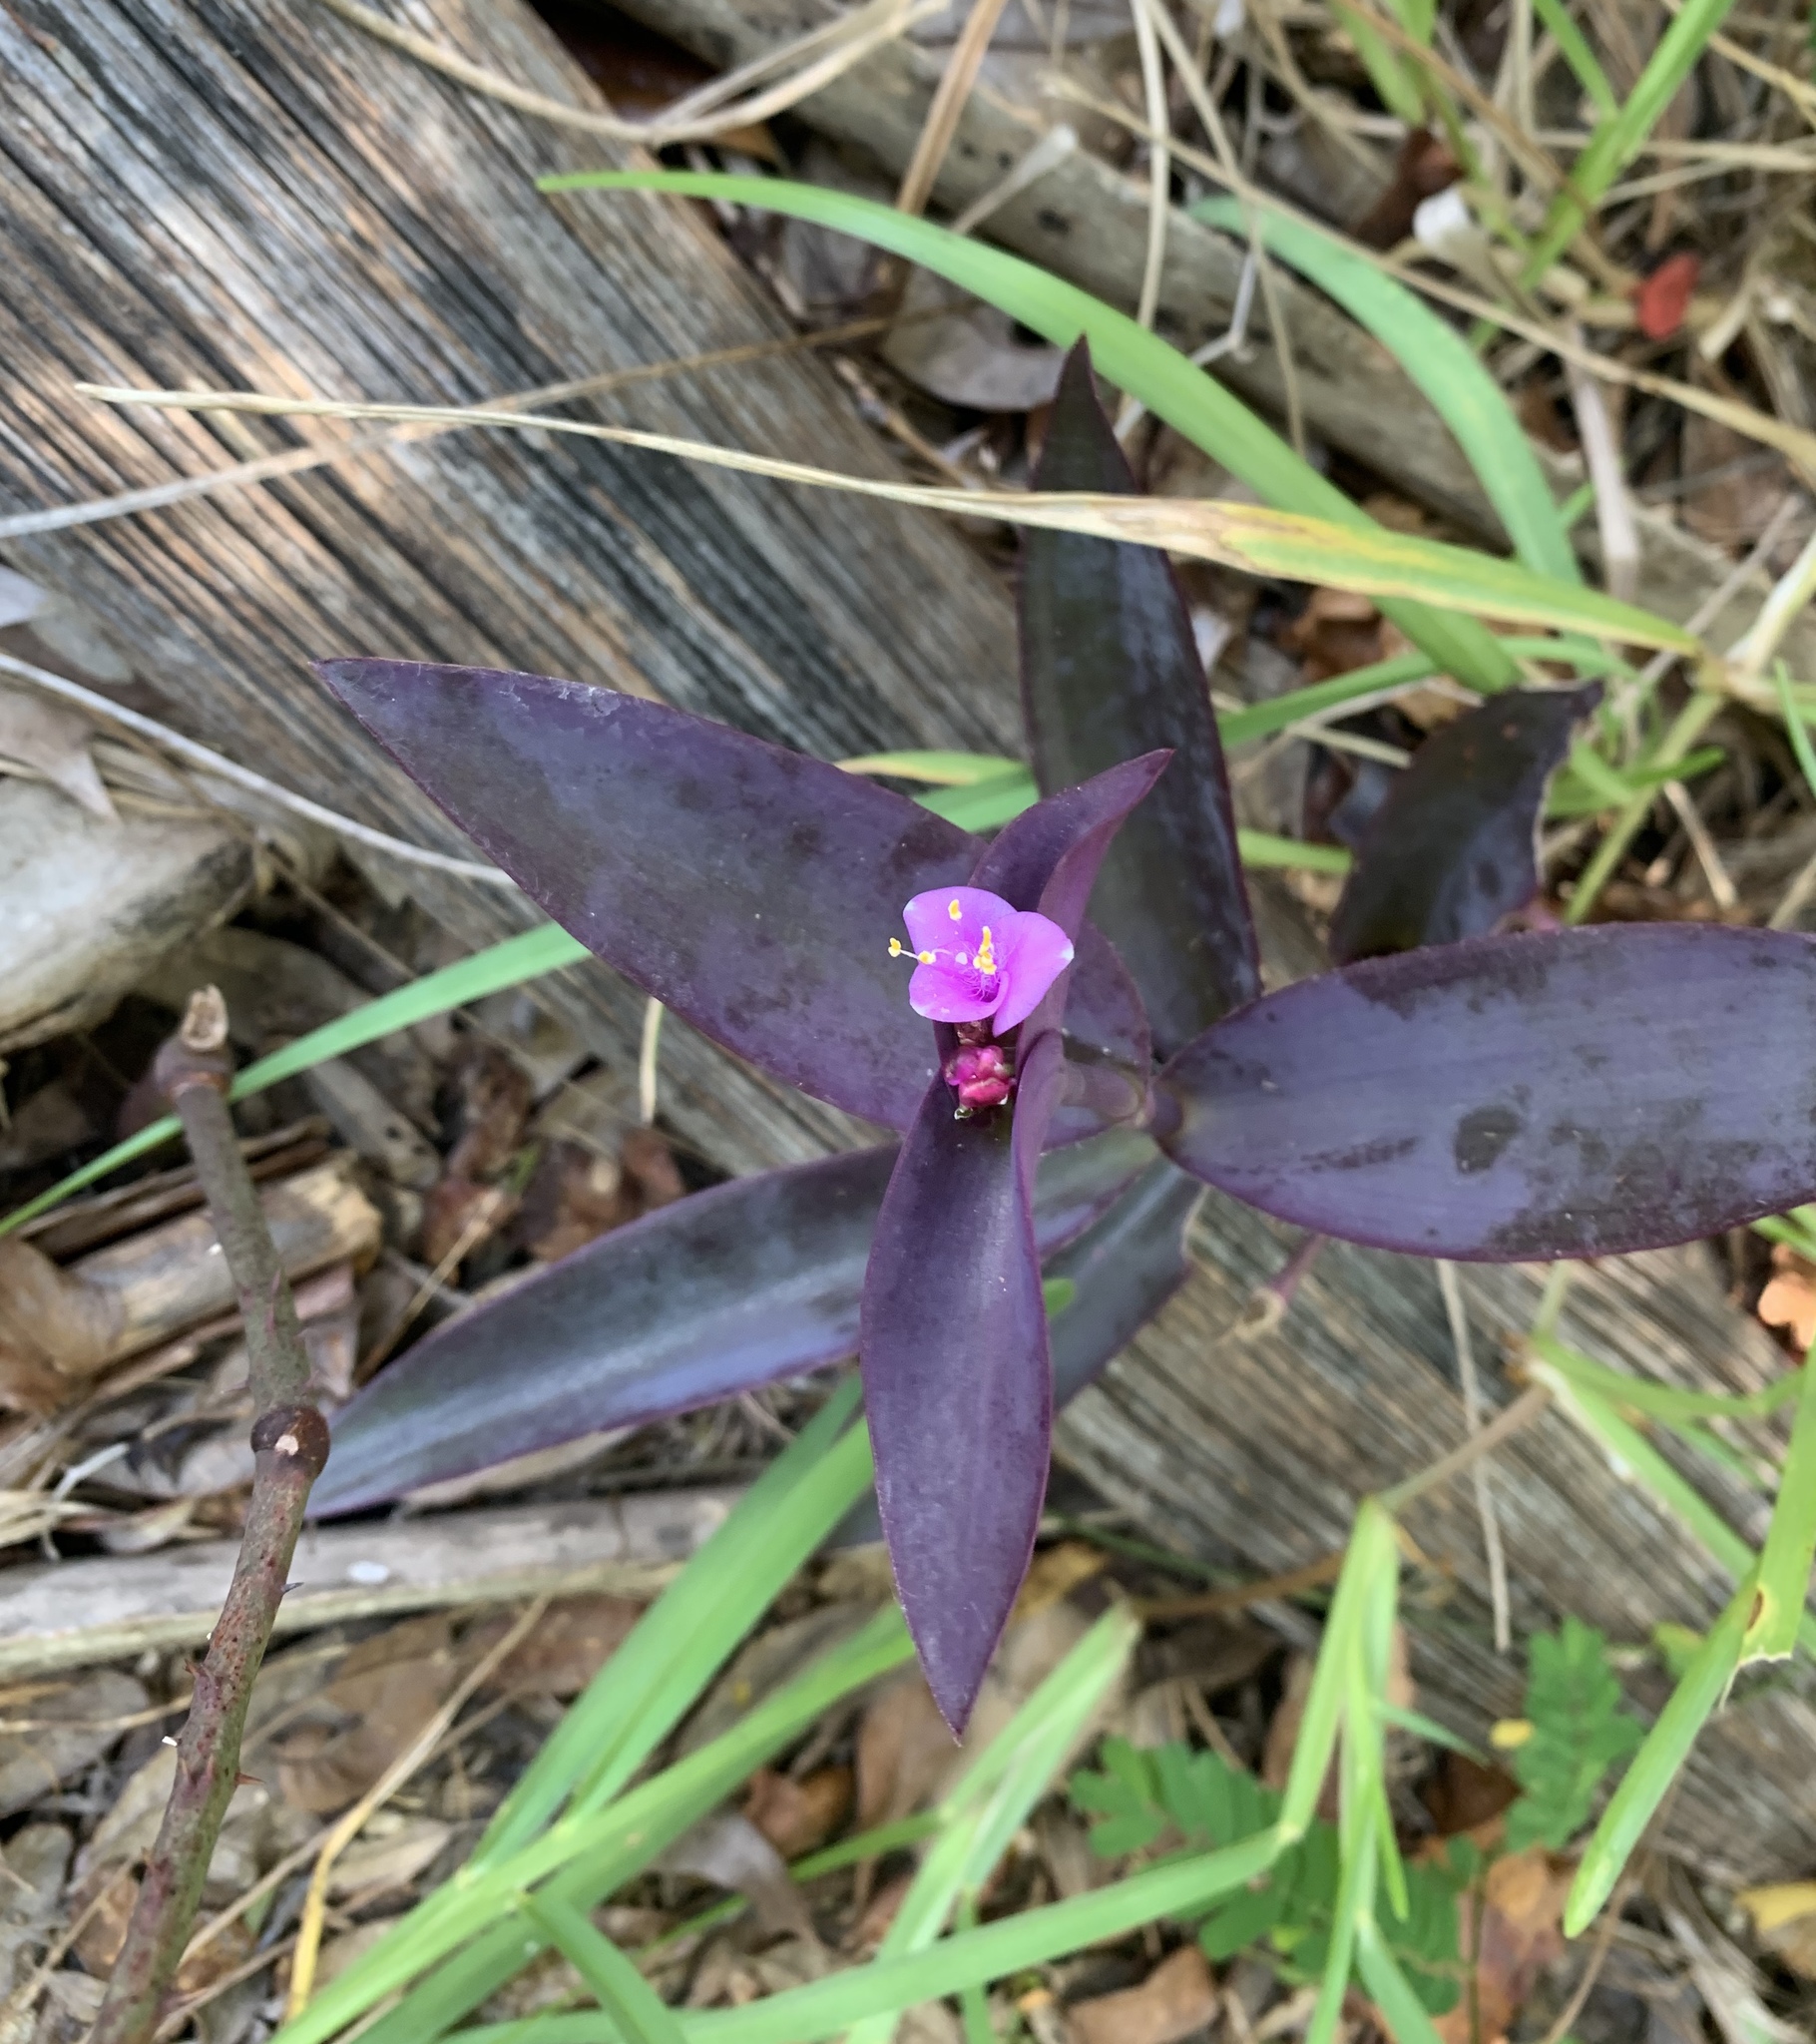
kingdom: Plantae
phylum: Tracheophyta
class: Liliopsida
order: Commelinales
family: Commelinaceae
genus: Tradescantia
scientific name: Tradescantia pallida
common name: Purpleheart
